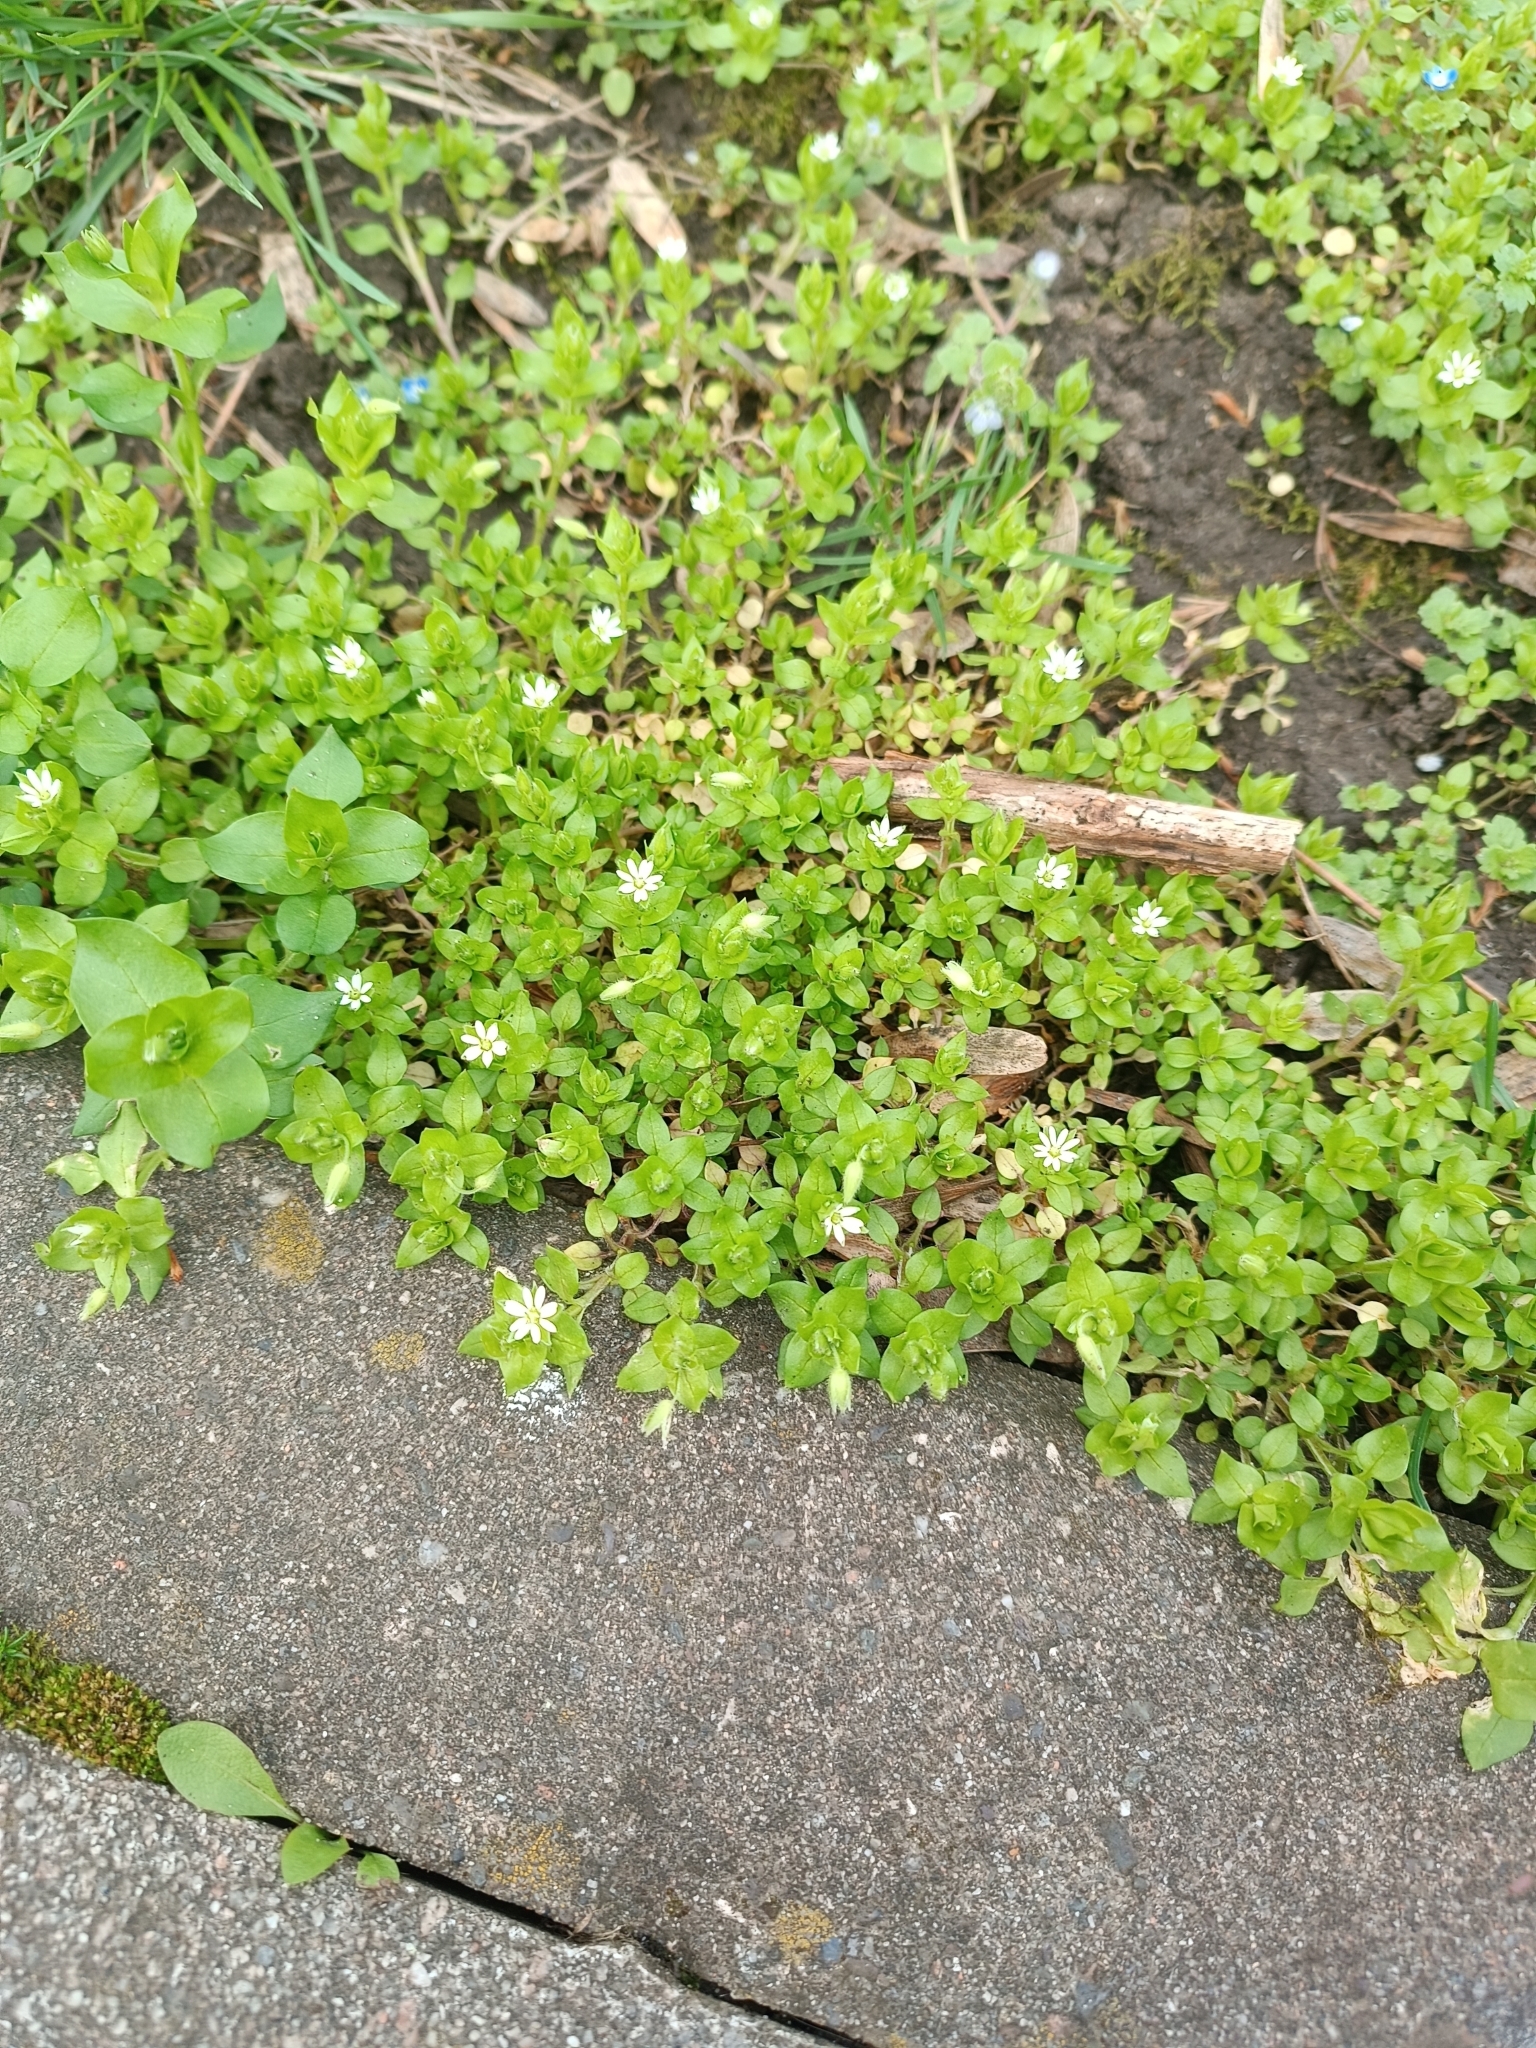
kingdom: Plantae
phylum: Tracheophyta
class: Magnoliopsida
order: Caryophyllales
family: Caryophyllaceae
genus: Stellaria
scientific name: Stellaria media
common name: Common chickweed
